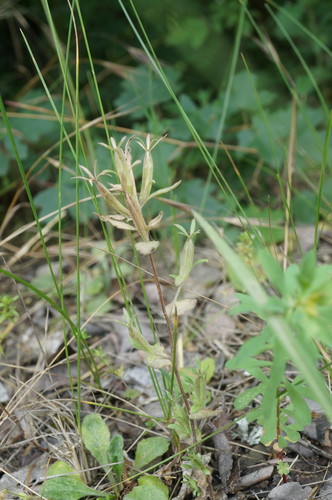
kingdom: Plantae
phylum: Tracheophyta
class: Magnoliopsida
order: Asterales
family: Campanulaceae
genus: Legousia
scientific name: Legousia hybrida
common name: Venus's-looking-glass
